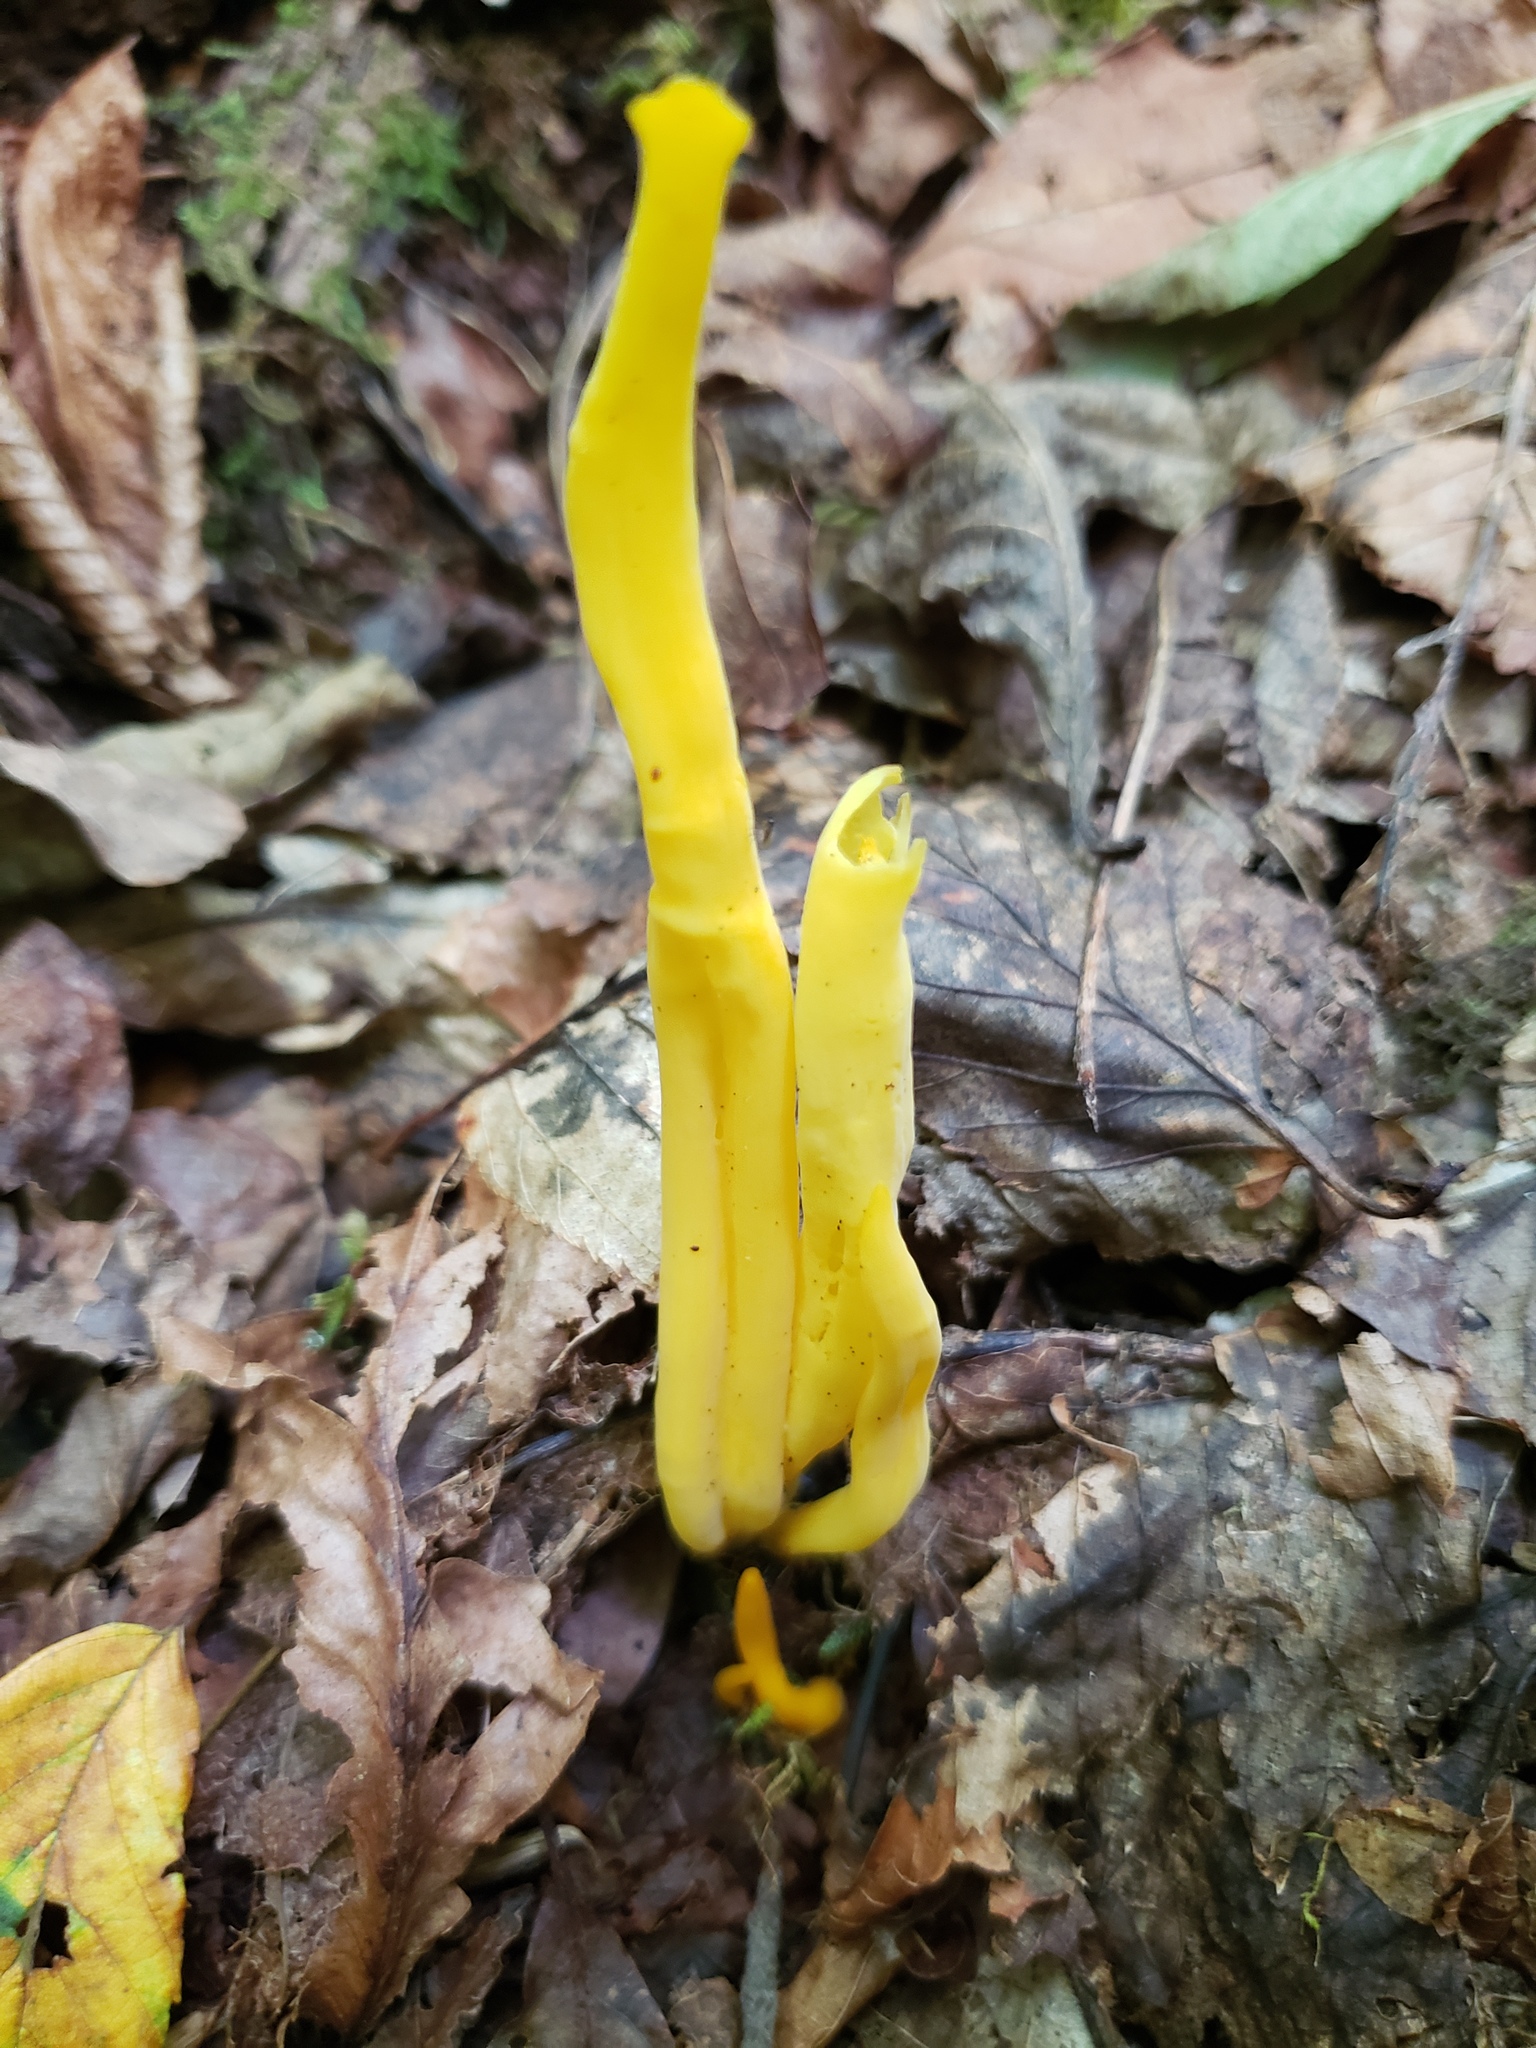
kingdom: Fungi
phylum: Basidiomycota
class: Agaricomycetes
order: Agaricales
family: Clavariaceae
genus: Clavulinopsis
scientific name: Clavulinopsis fusiformis
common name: Golden spindles
